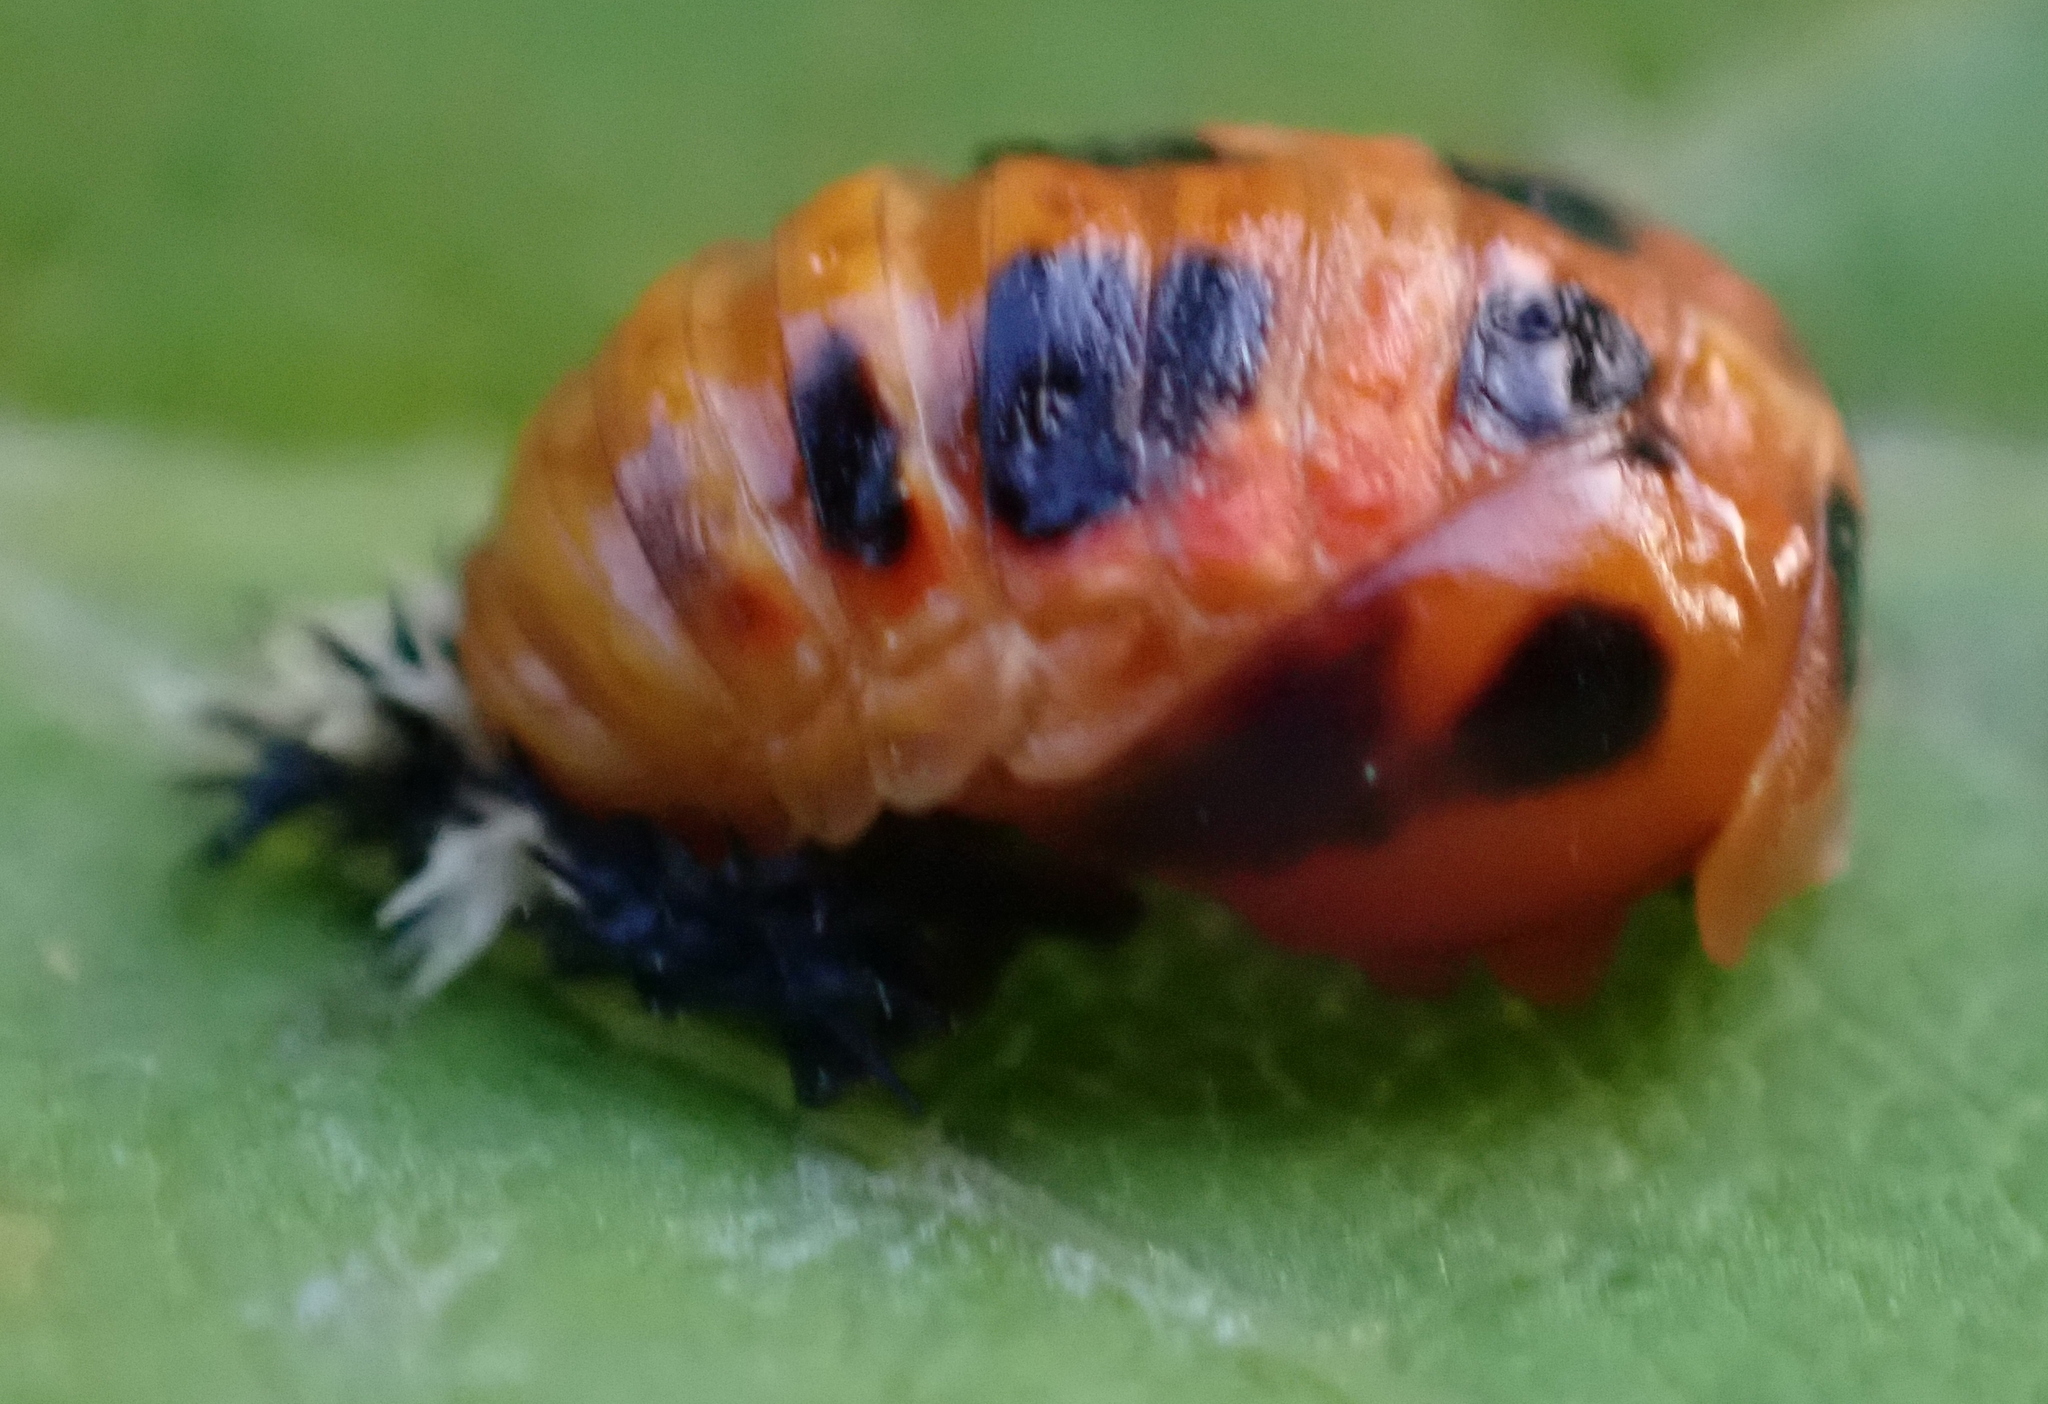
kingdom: Animalia
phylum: Arthropoda
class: Insecta
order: Coleoptera
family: Coccinellidae
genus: Harmonia
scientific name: Harmonia axyridis
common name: Harlequin ladybird
